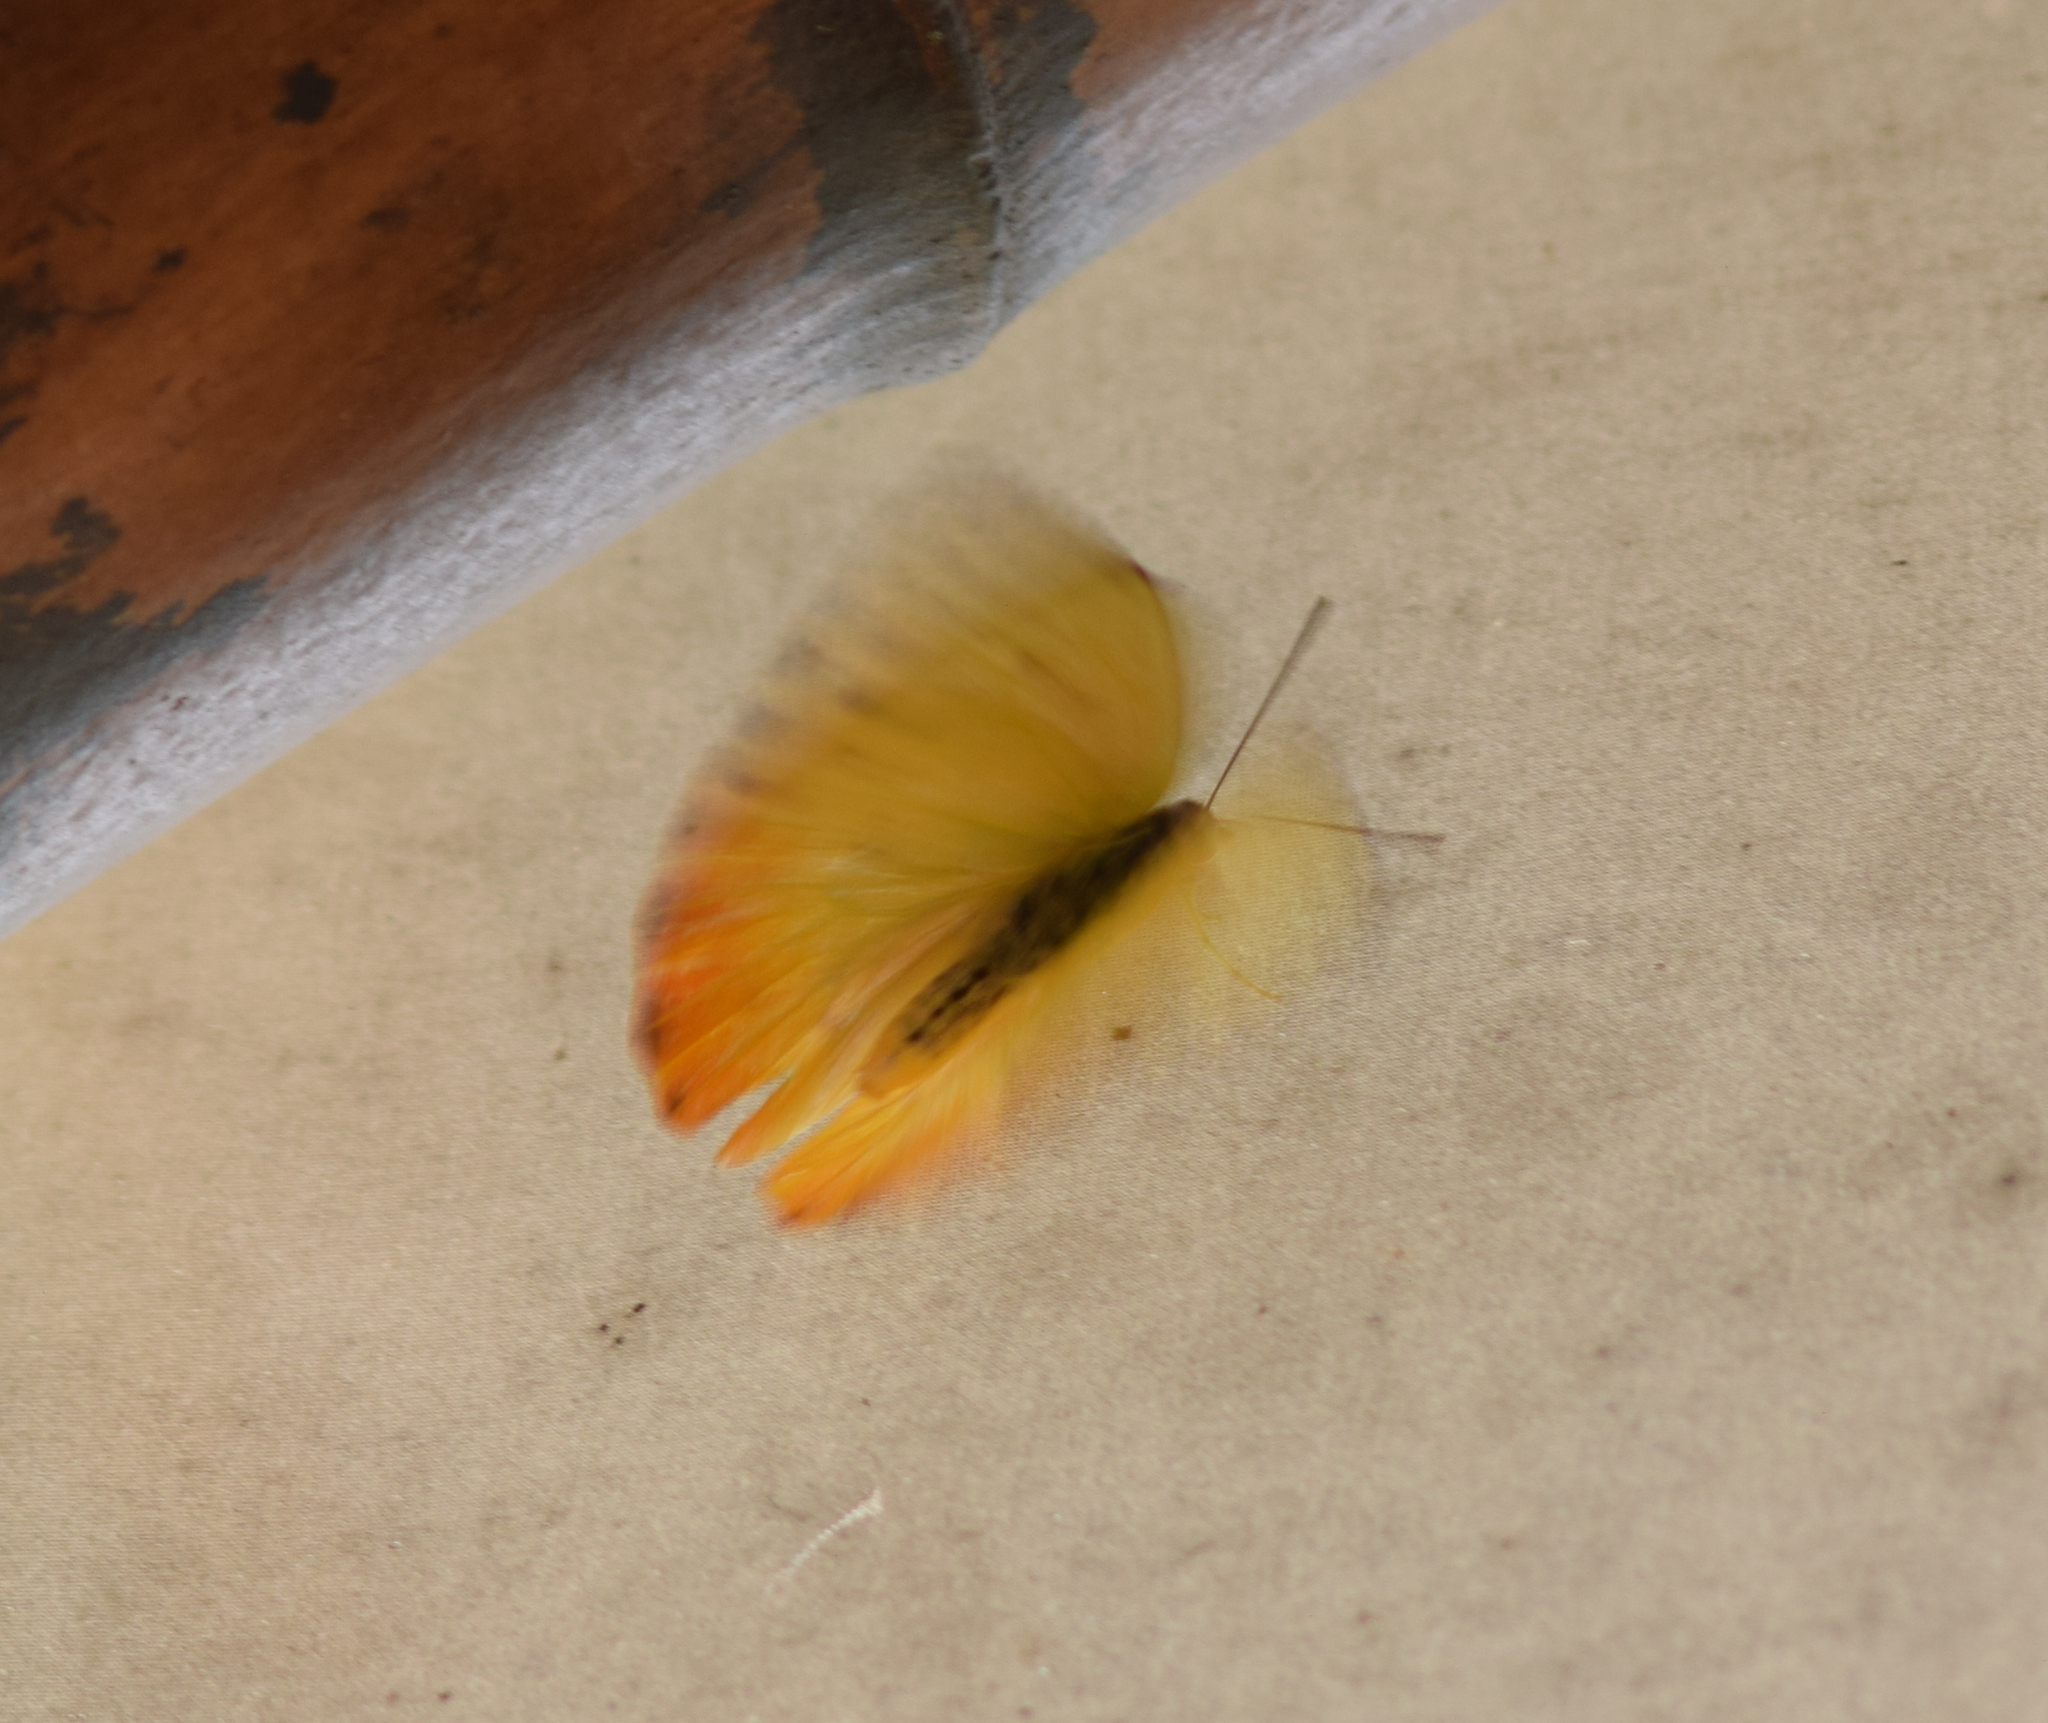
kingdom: Animalia
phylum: Arthropoda
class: Insecta
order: Lepidoptera
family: Pieridae
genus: Phoebis
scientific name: Phoebis philea
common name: Orange-barred giant sulphur
